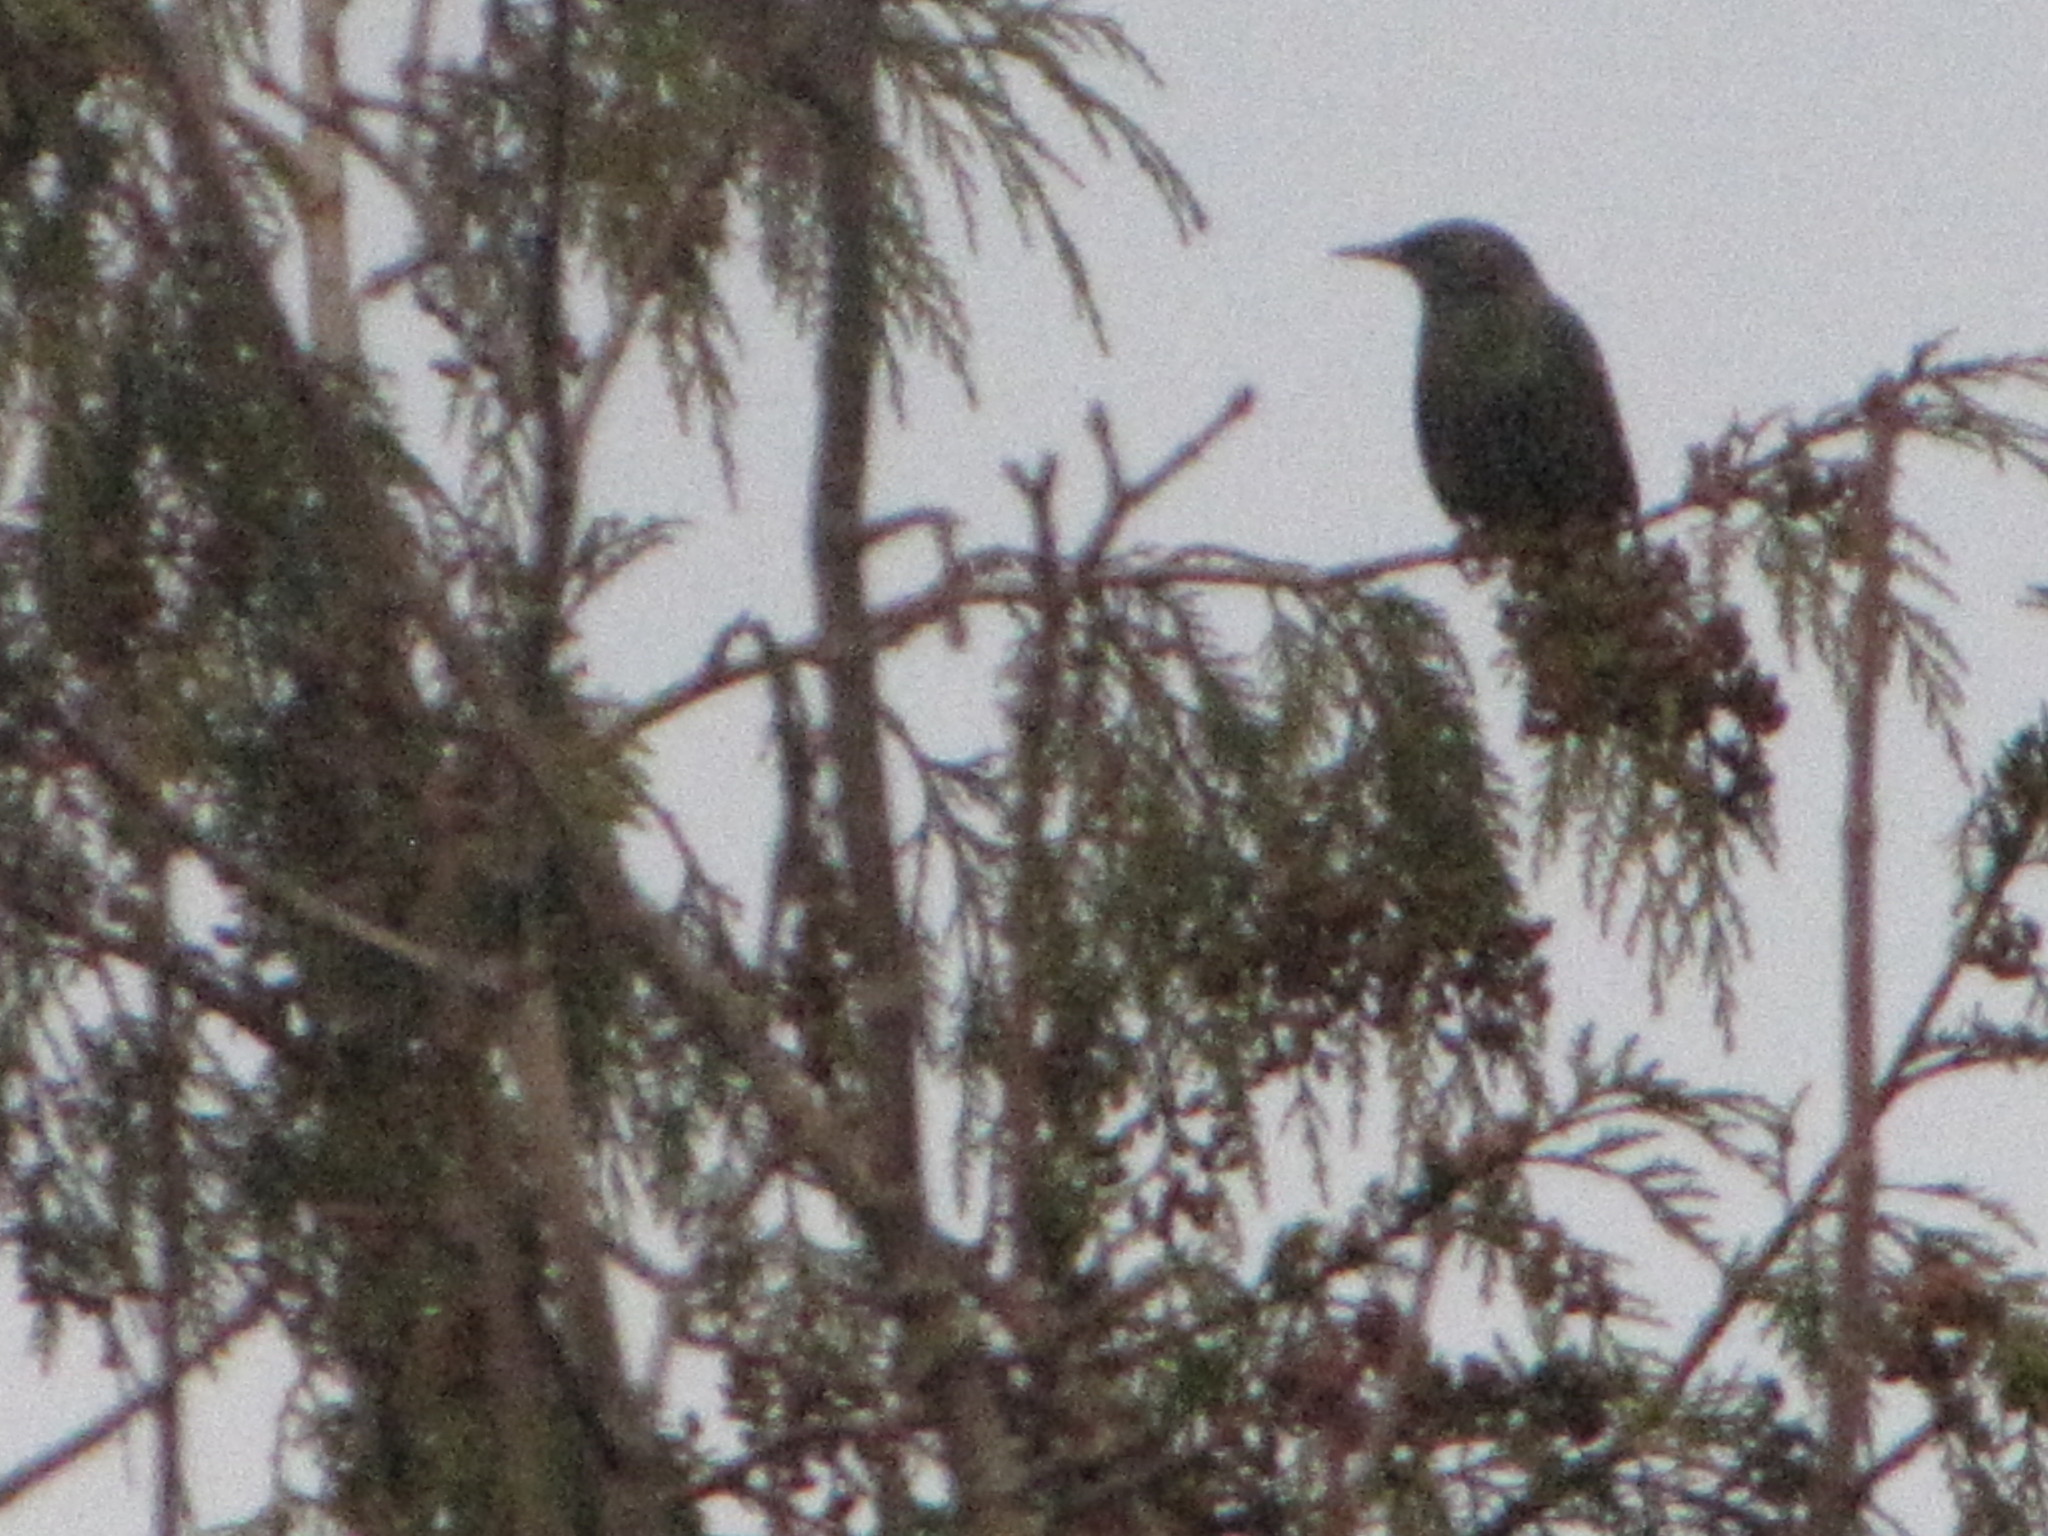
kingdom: Animalia
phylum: Chordata
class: Aves
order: Passeriformes
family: Sturnidae
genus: Sturnus
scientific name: Sturnus vulgaris
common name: Common starling
